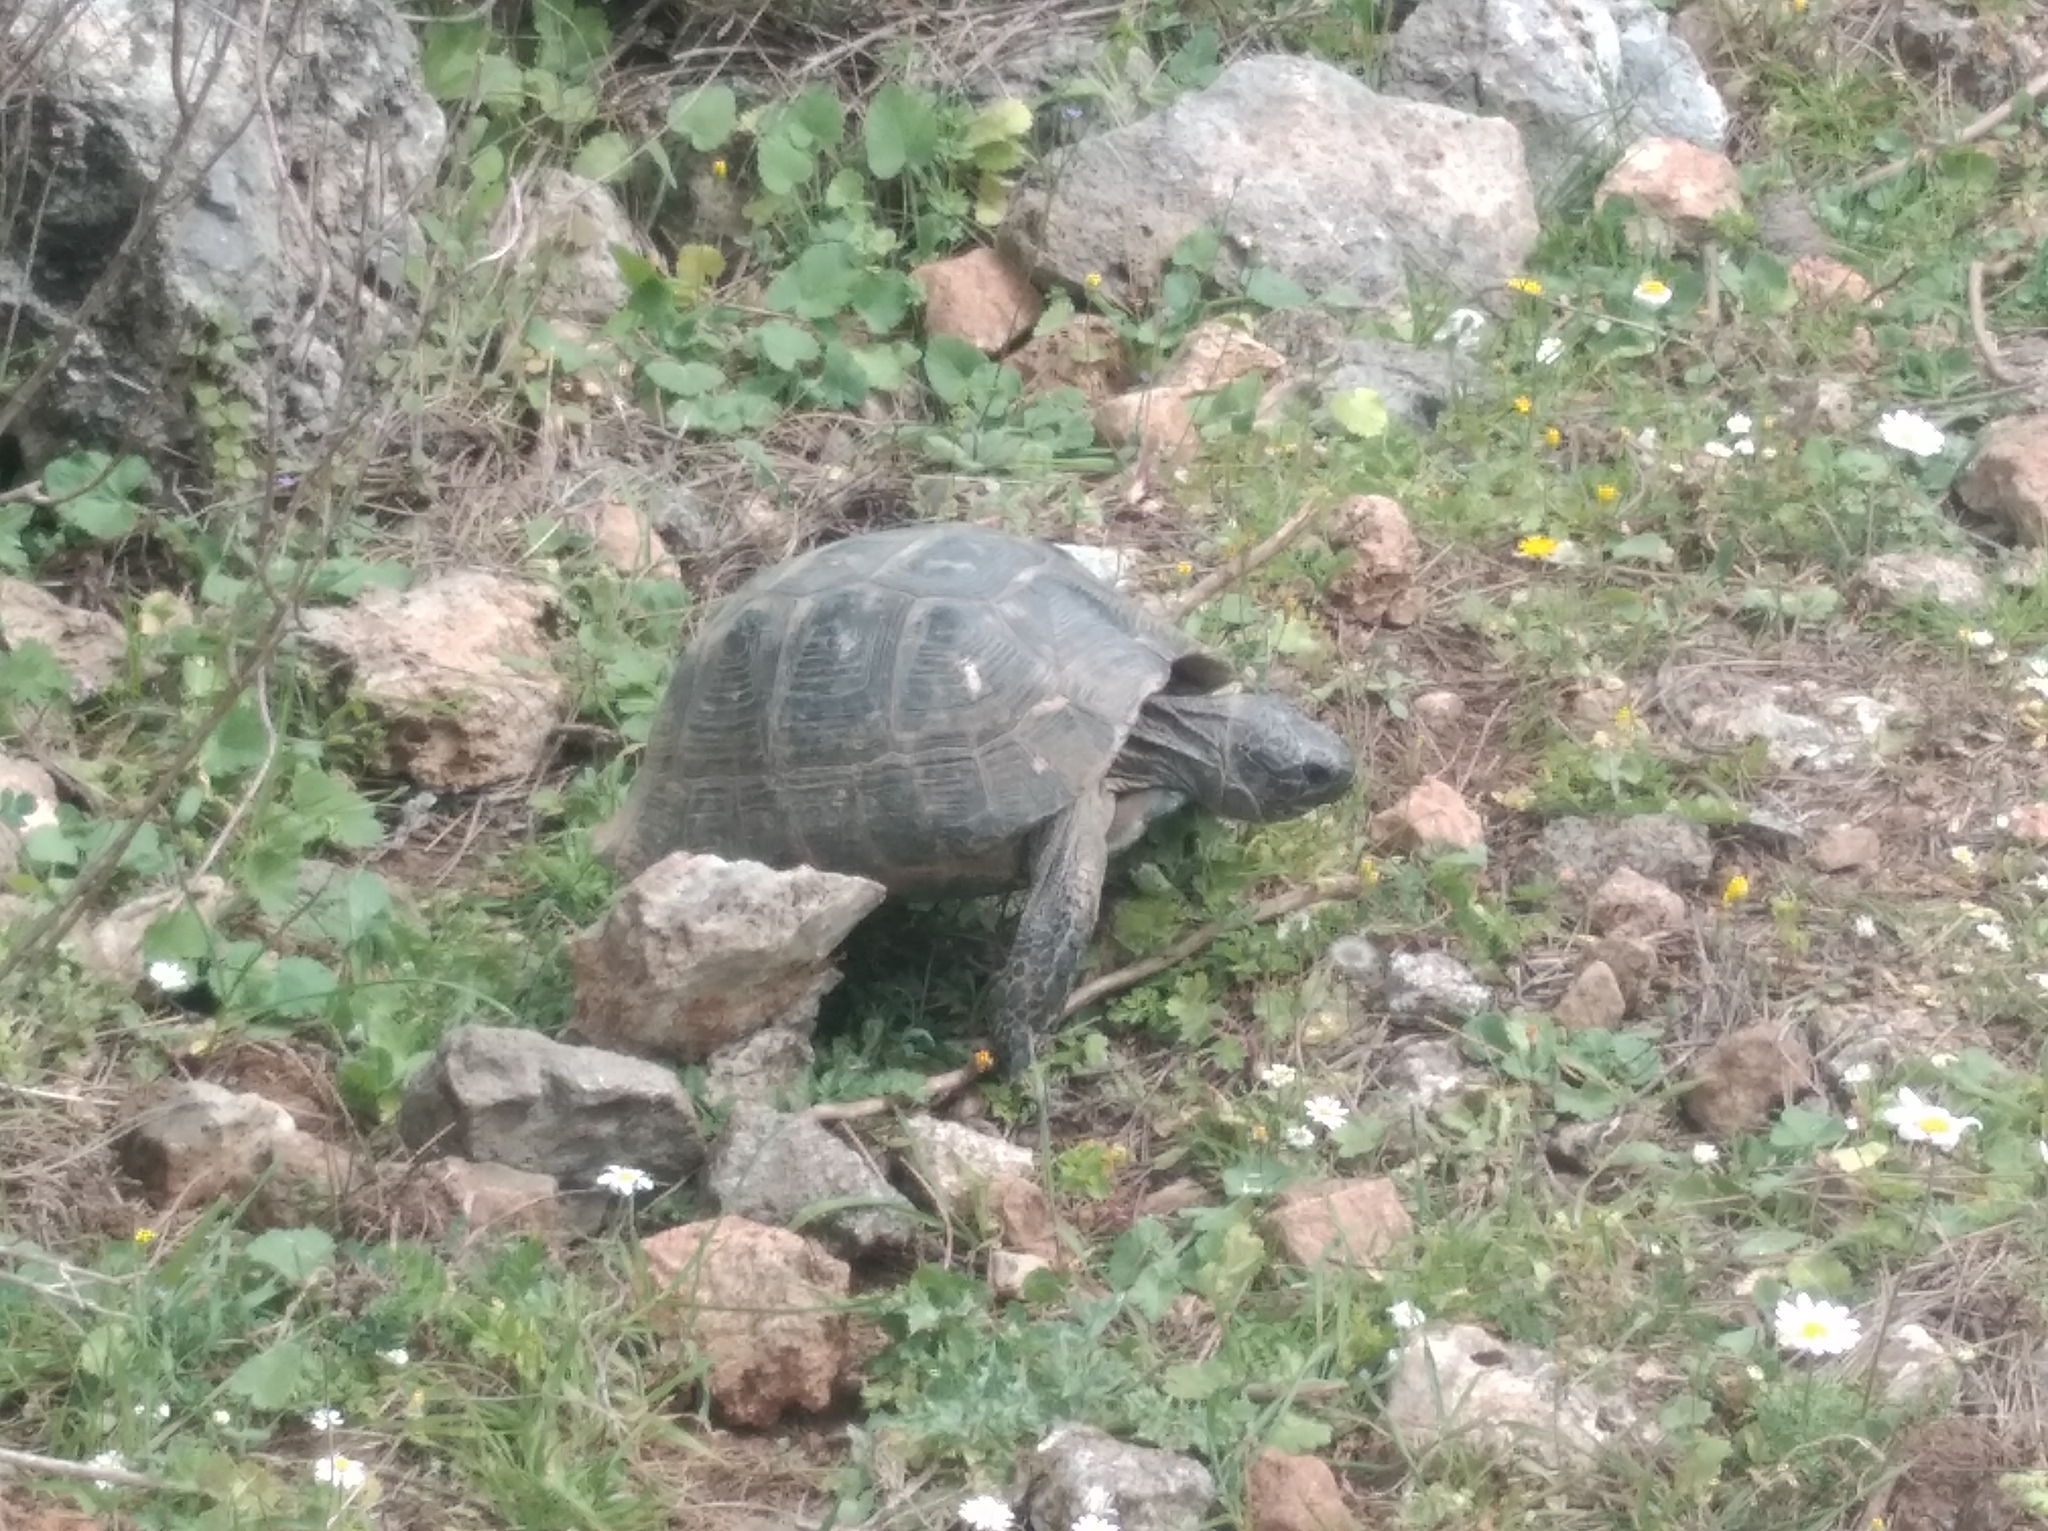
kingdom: Animalia
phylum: Chordata
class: Testudines
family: Testudinidae
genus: Testudo
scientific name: Testudo graeca
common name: Common tortoise
